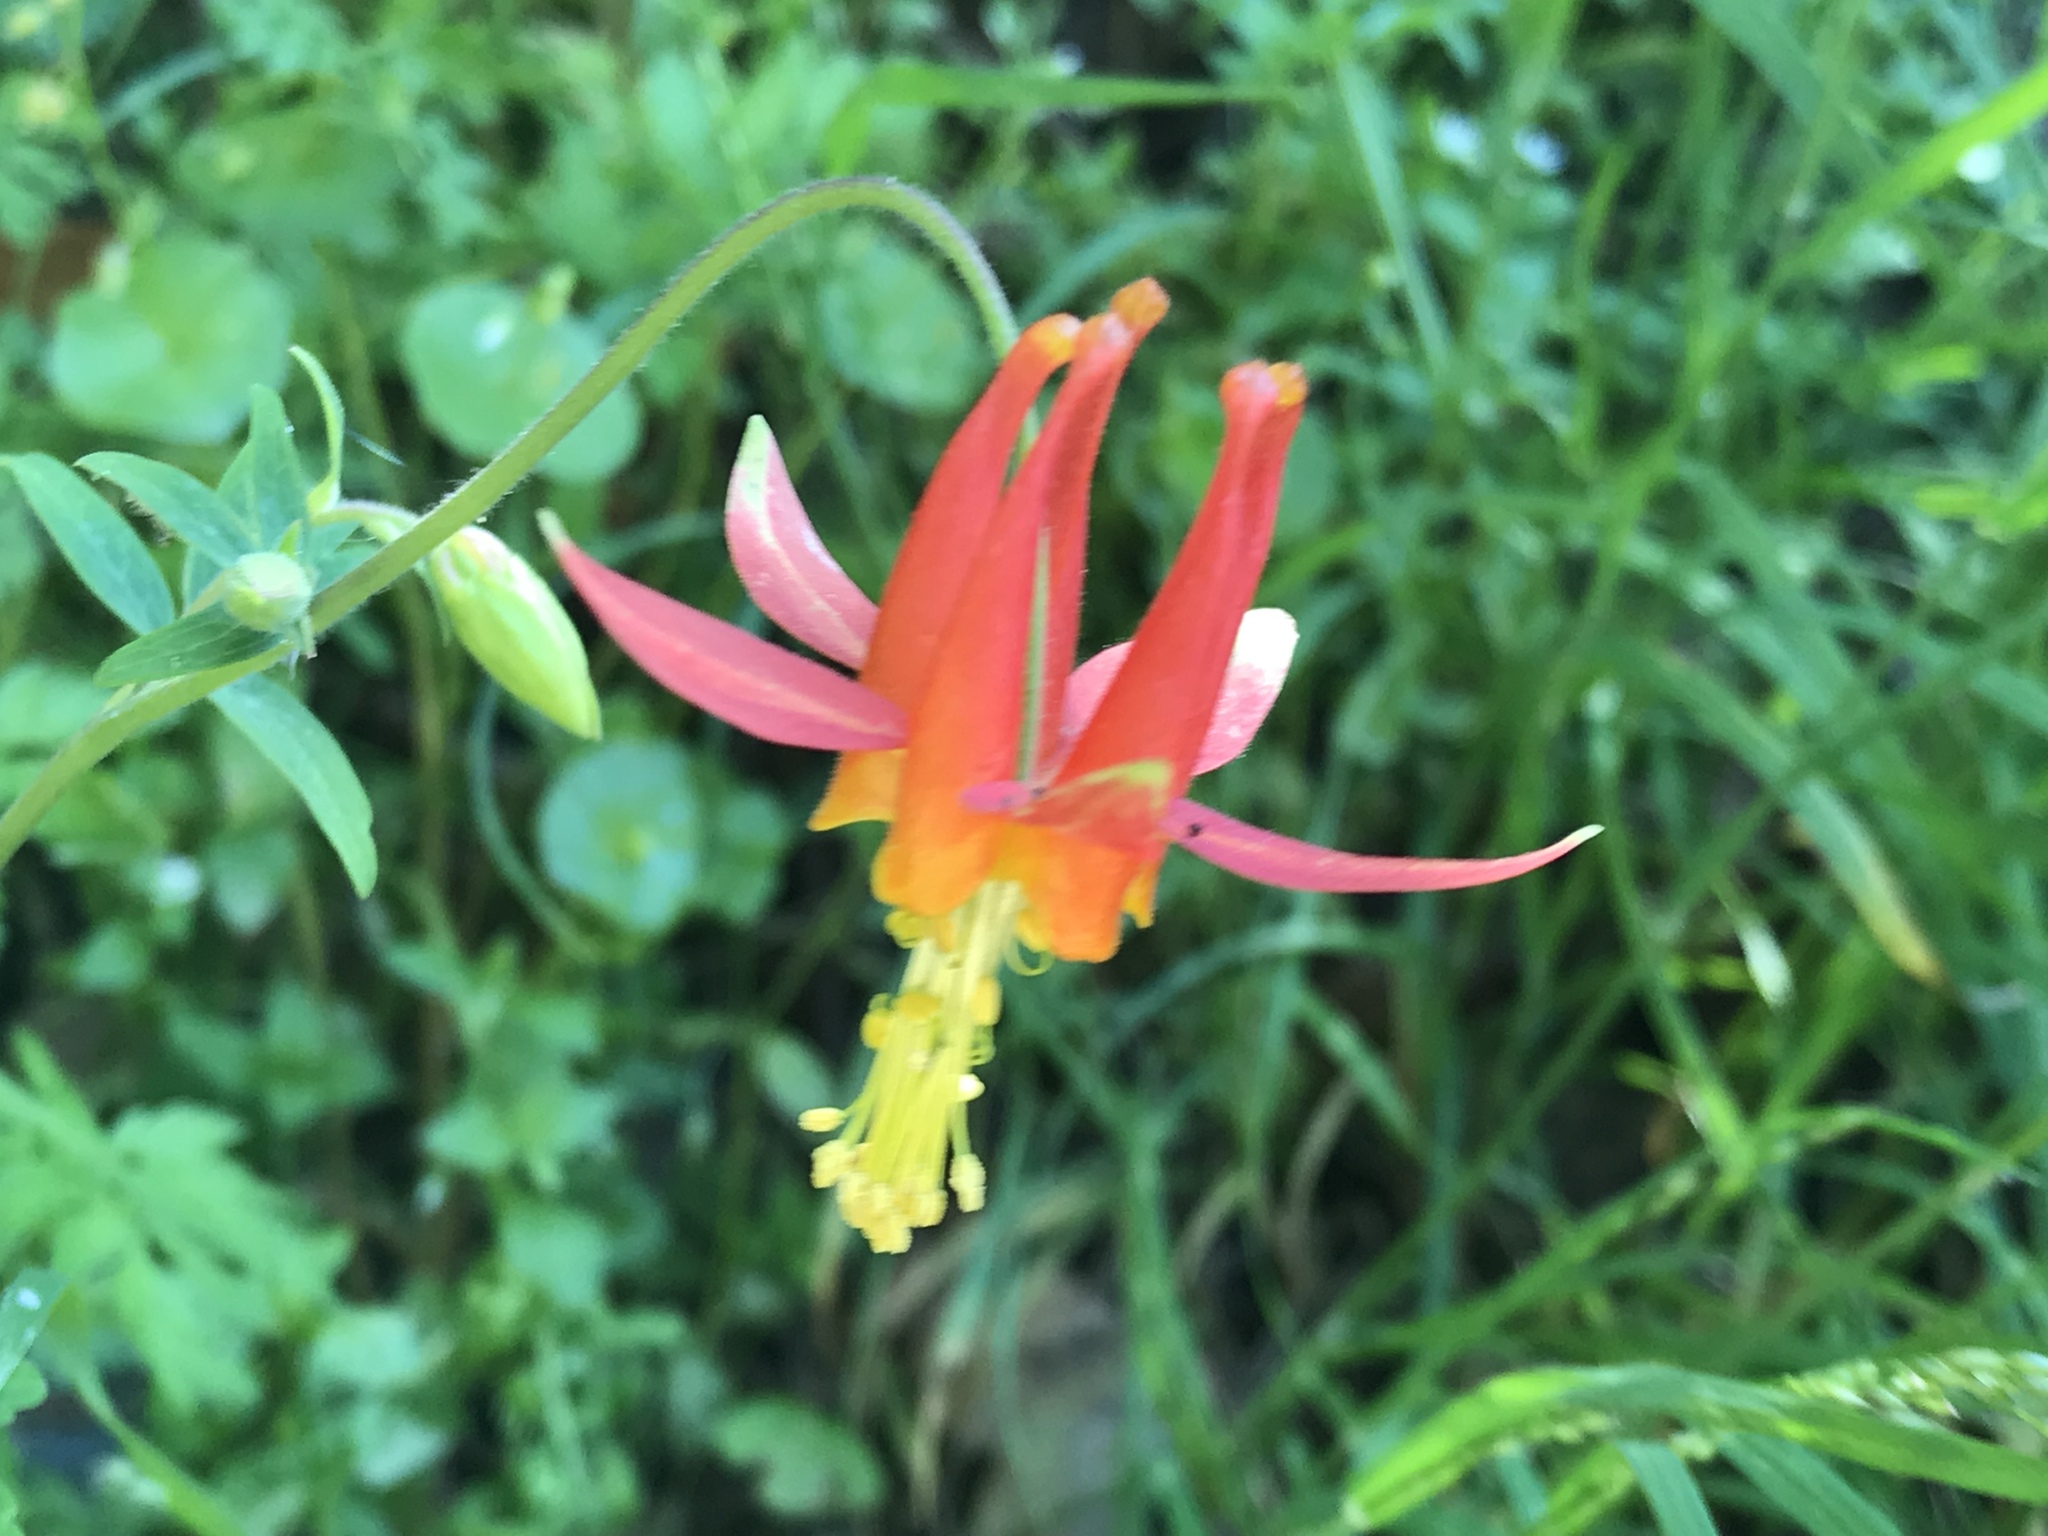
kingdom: Plantae
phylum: Tracheophyta
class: Magnoliopsida
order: Ranunculales
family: Ranunculaceae
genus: Aquilegia
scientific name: Aquilegia formosa
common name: Sitka columbine
